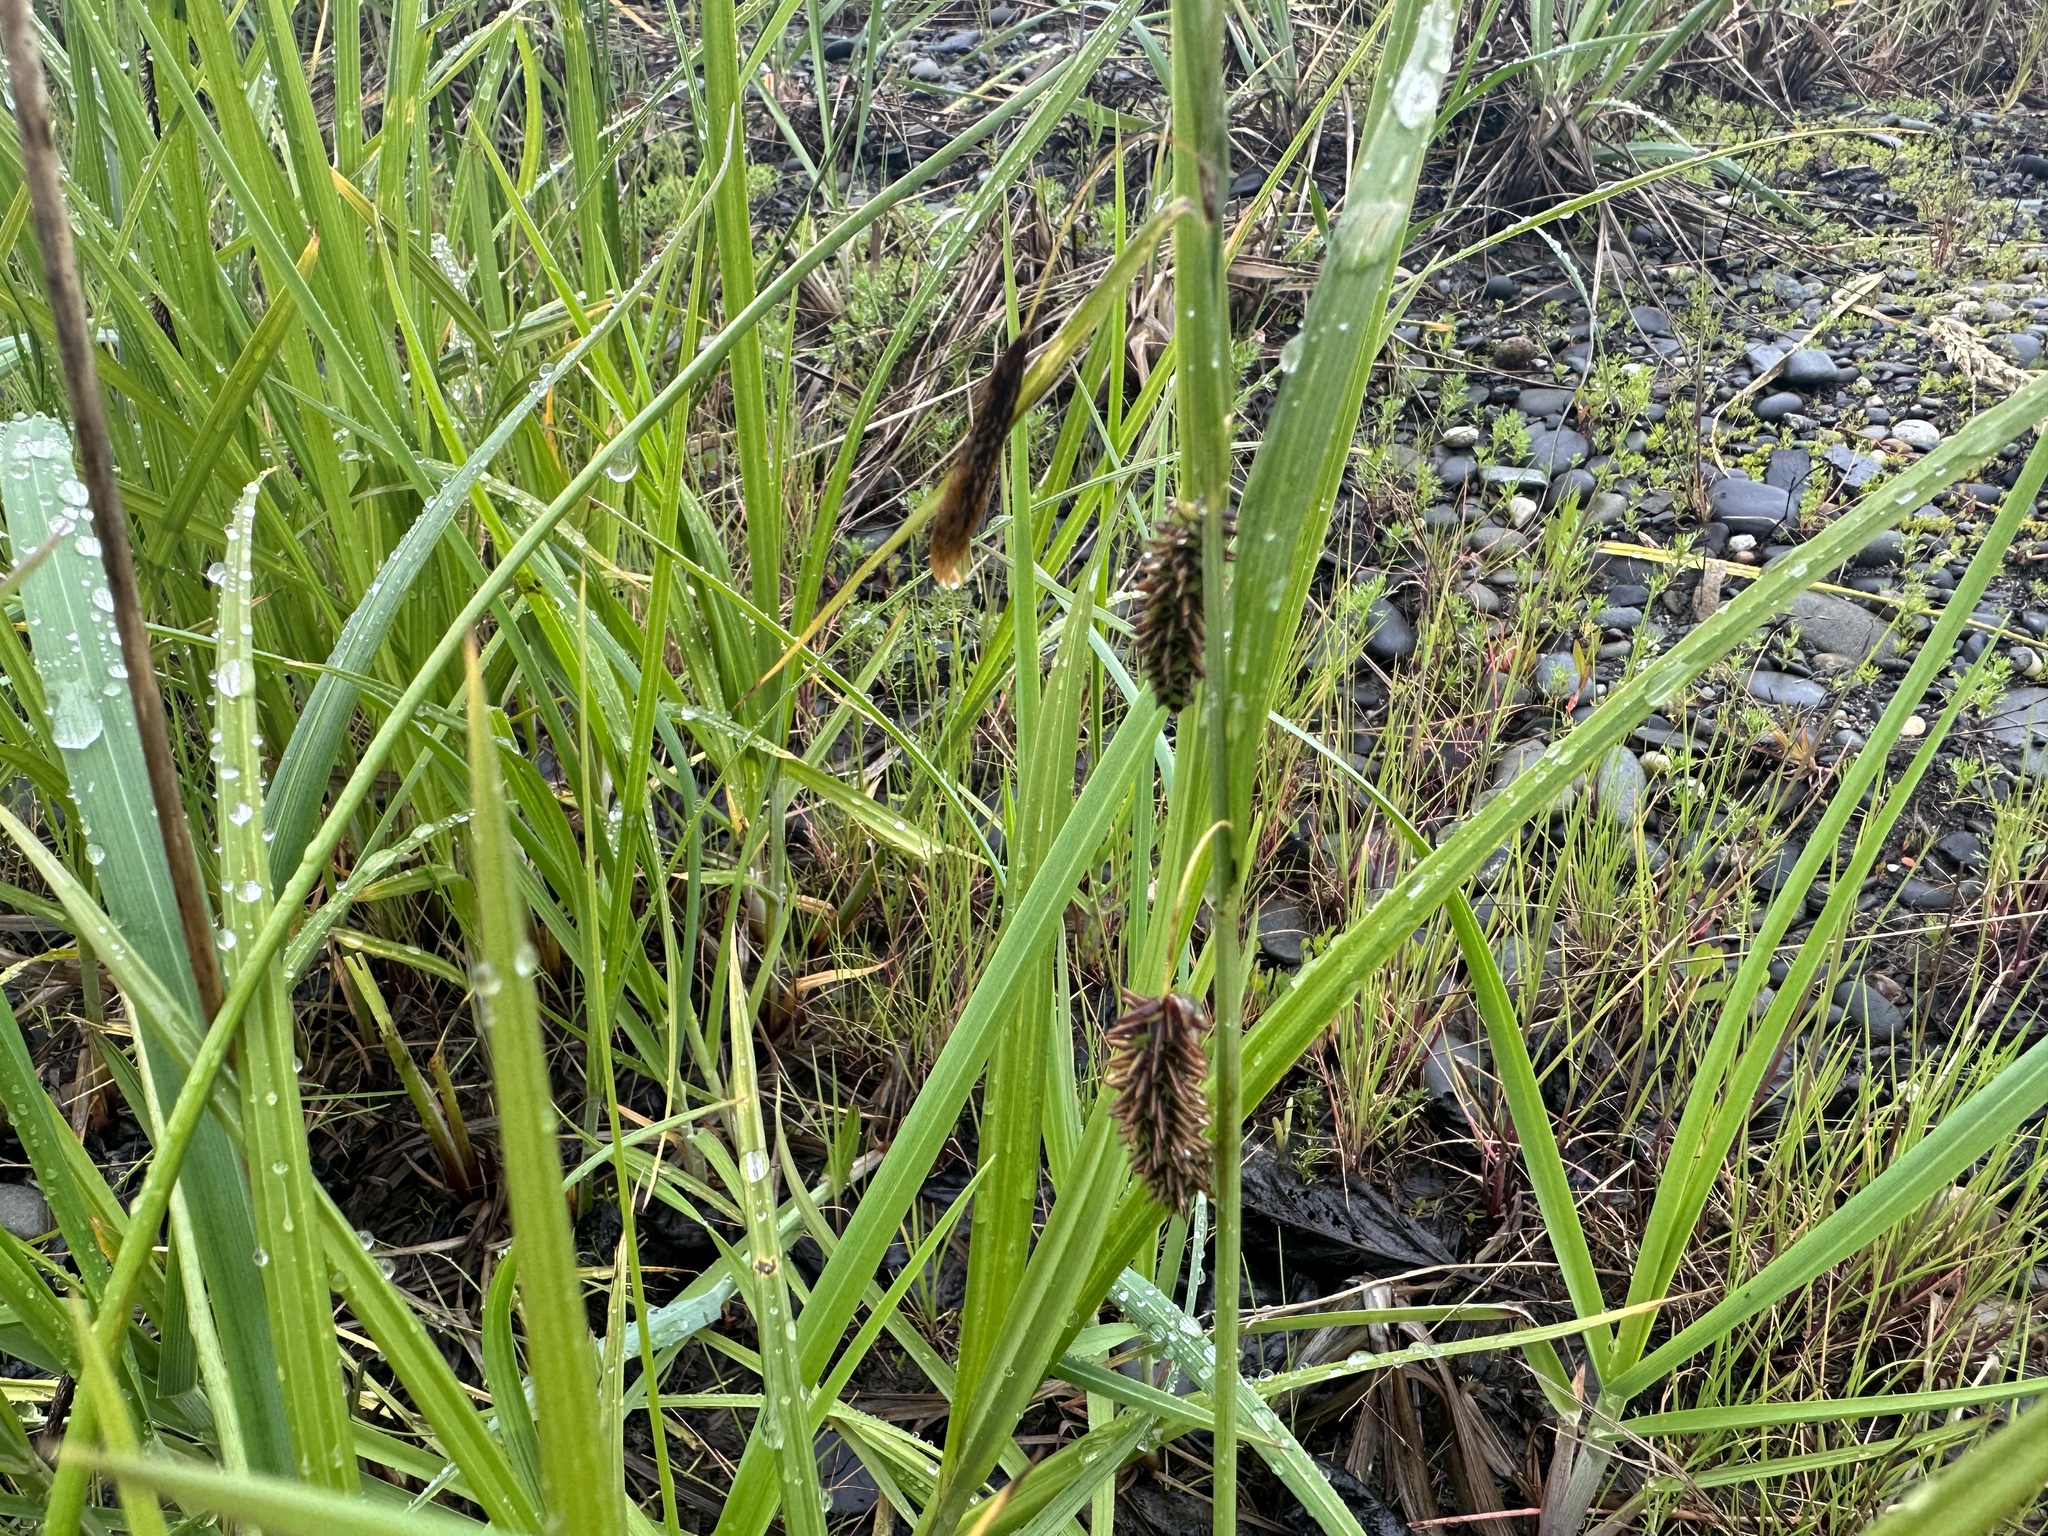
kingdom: Plantae
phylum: Tracheophyta
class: Liliopsida
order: Poales
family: Cyperaceae
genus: Carex
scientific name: Carex lyngbyei
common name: Lyngbye's sedge
